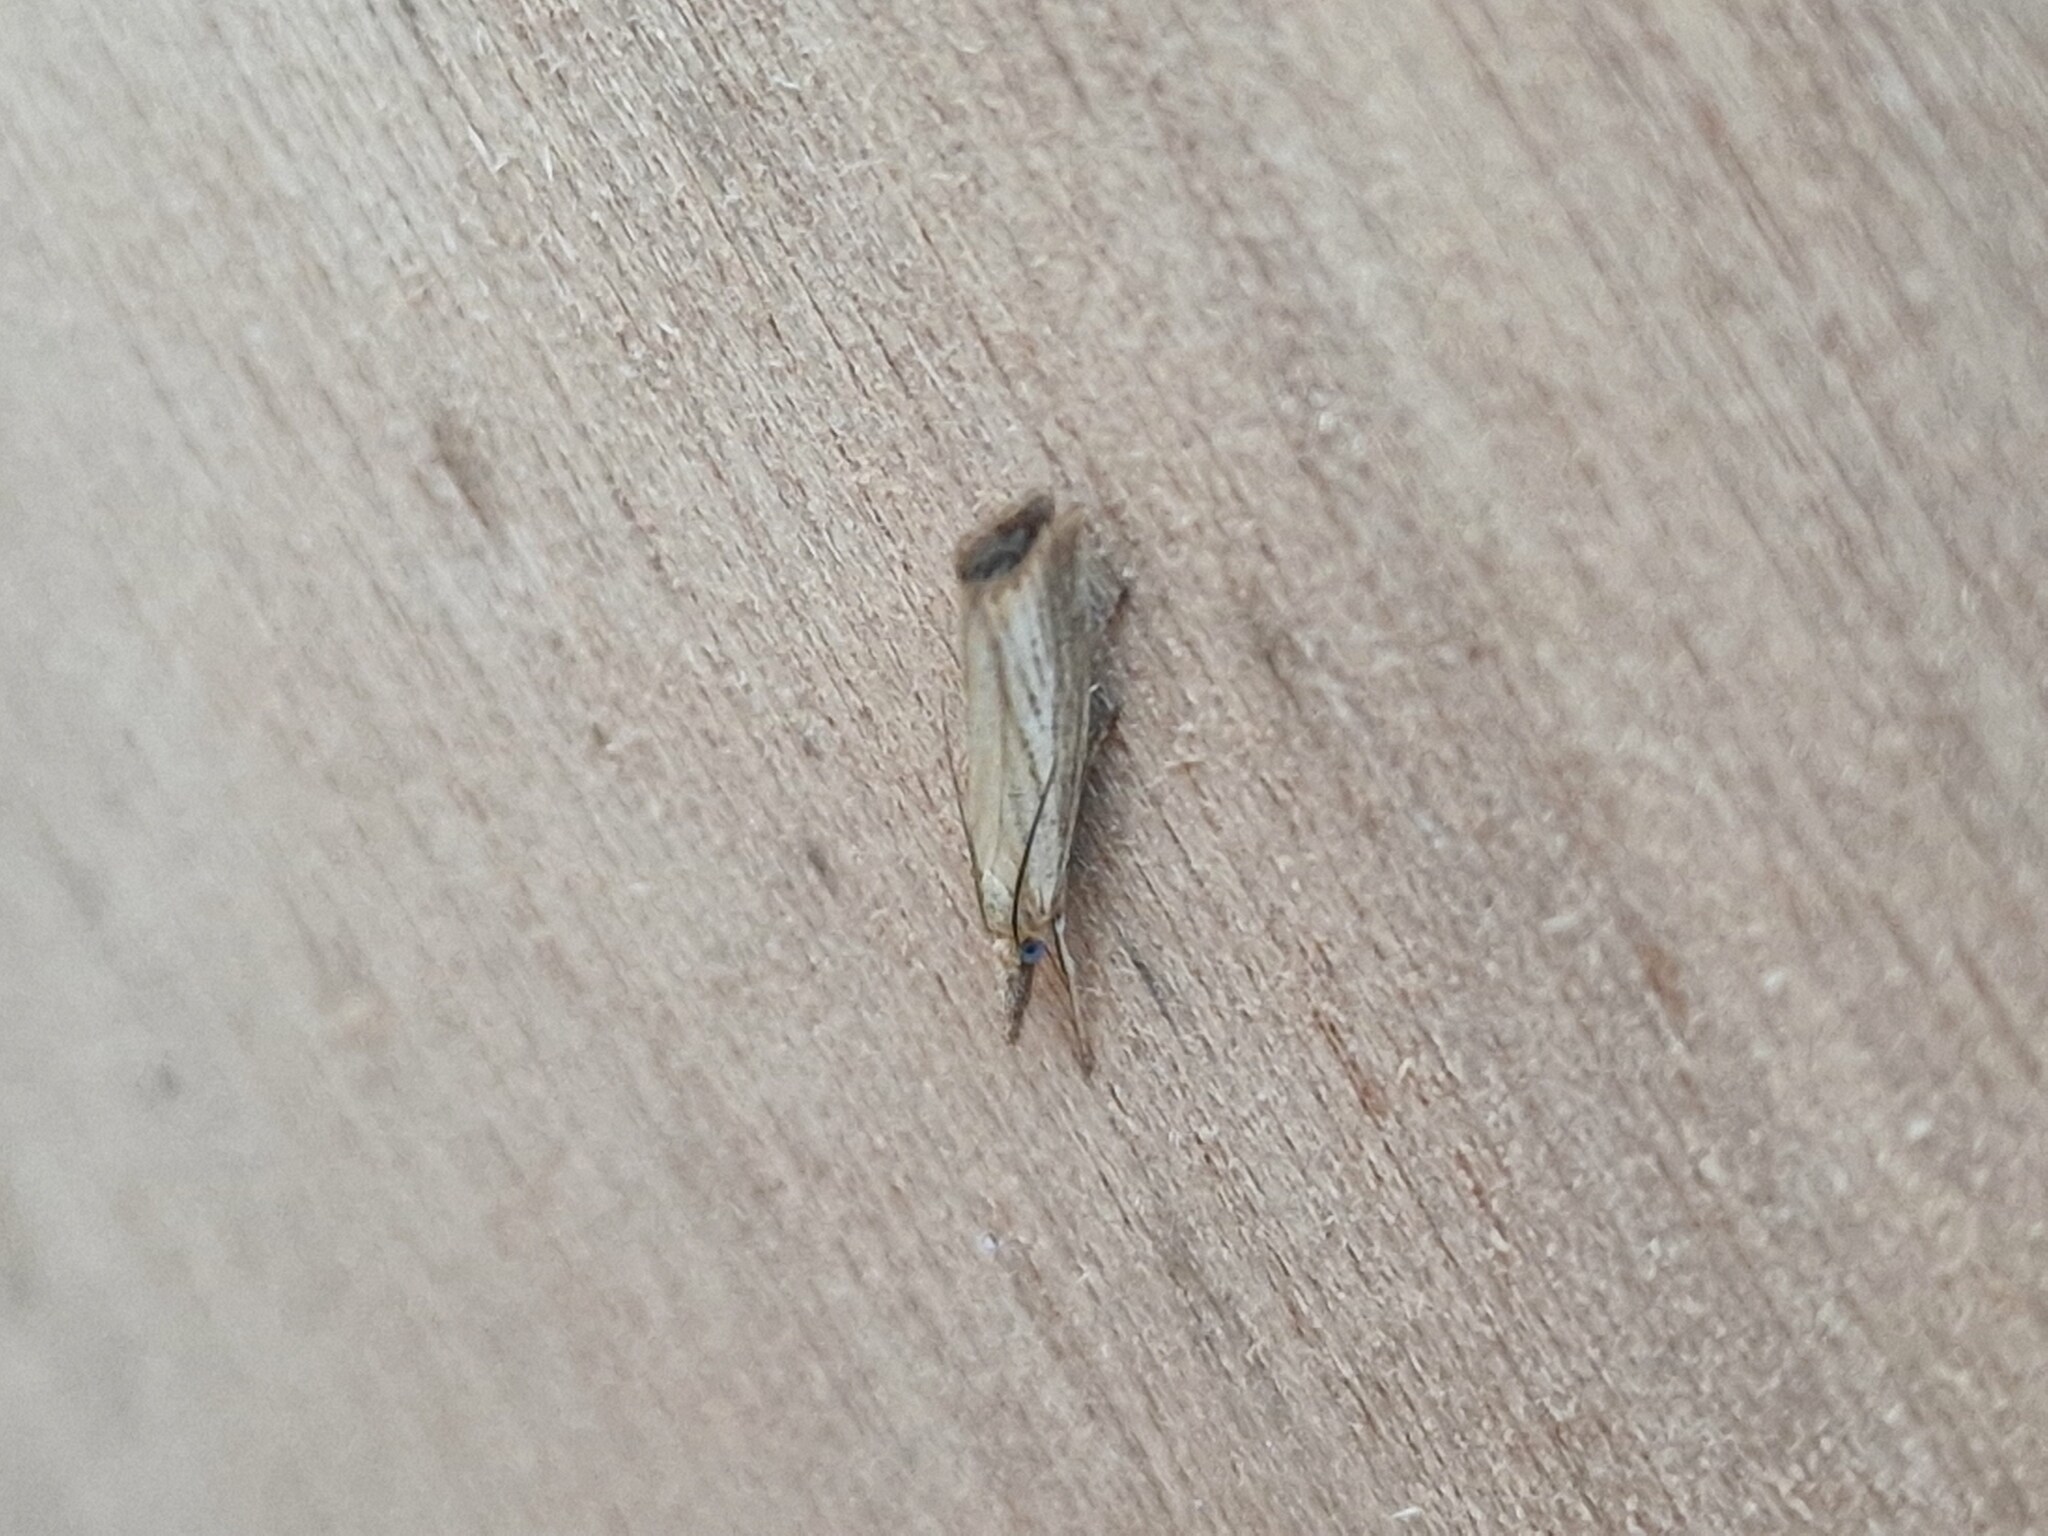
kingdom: Animalia
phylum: Arthropoda
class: Insecta
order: Lepidoptera
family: Crambidae
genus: Agriphila
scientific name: Agriphila straminella
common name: Straw grass-veneer
